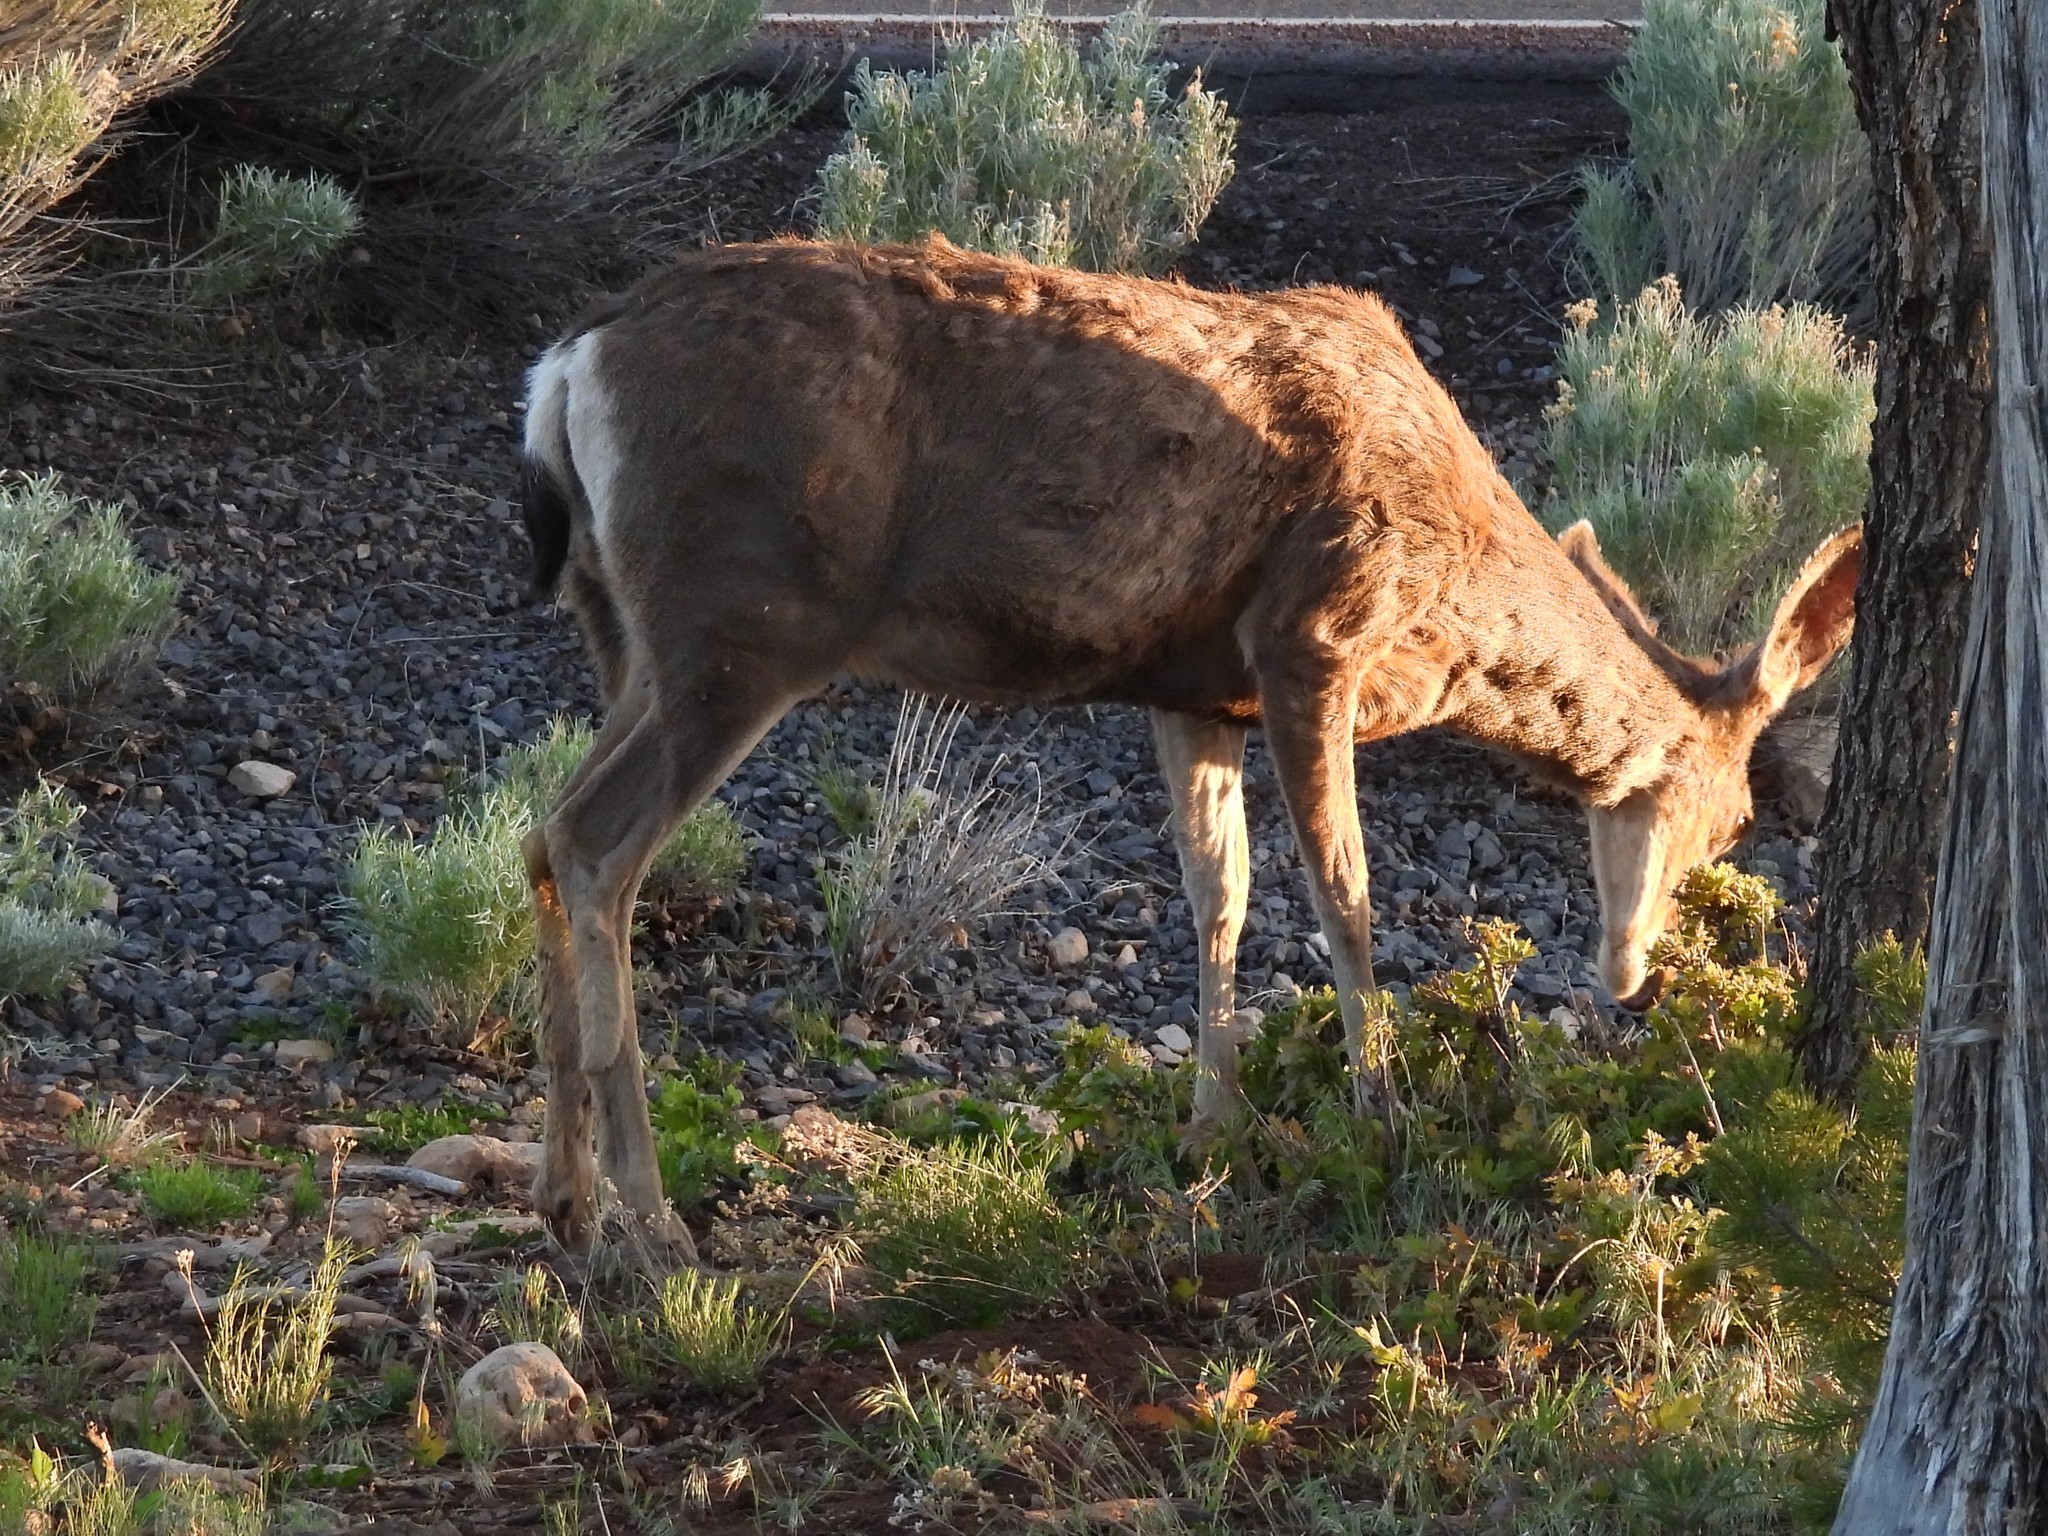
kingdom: Animalia
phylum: Chordata
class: Mammalia
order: Artiodactyla
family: Cervidae
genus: Odocoileus
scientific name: Odocoileus hemionus
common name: Mule deer
